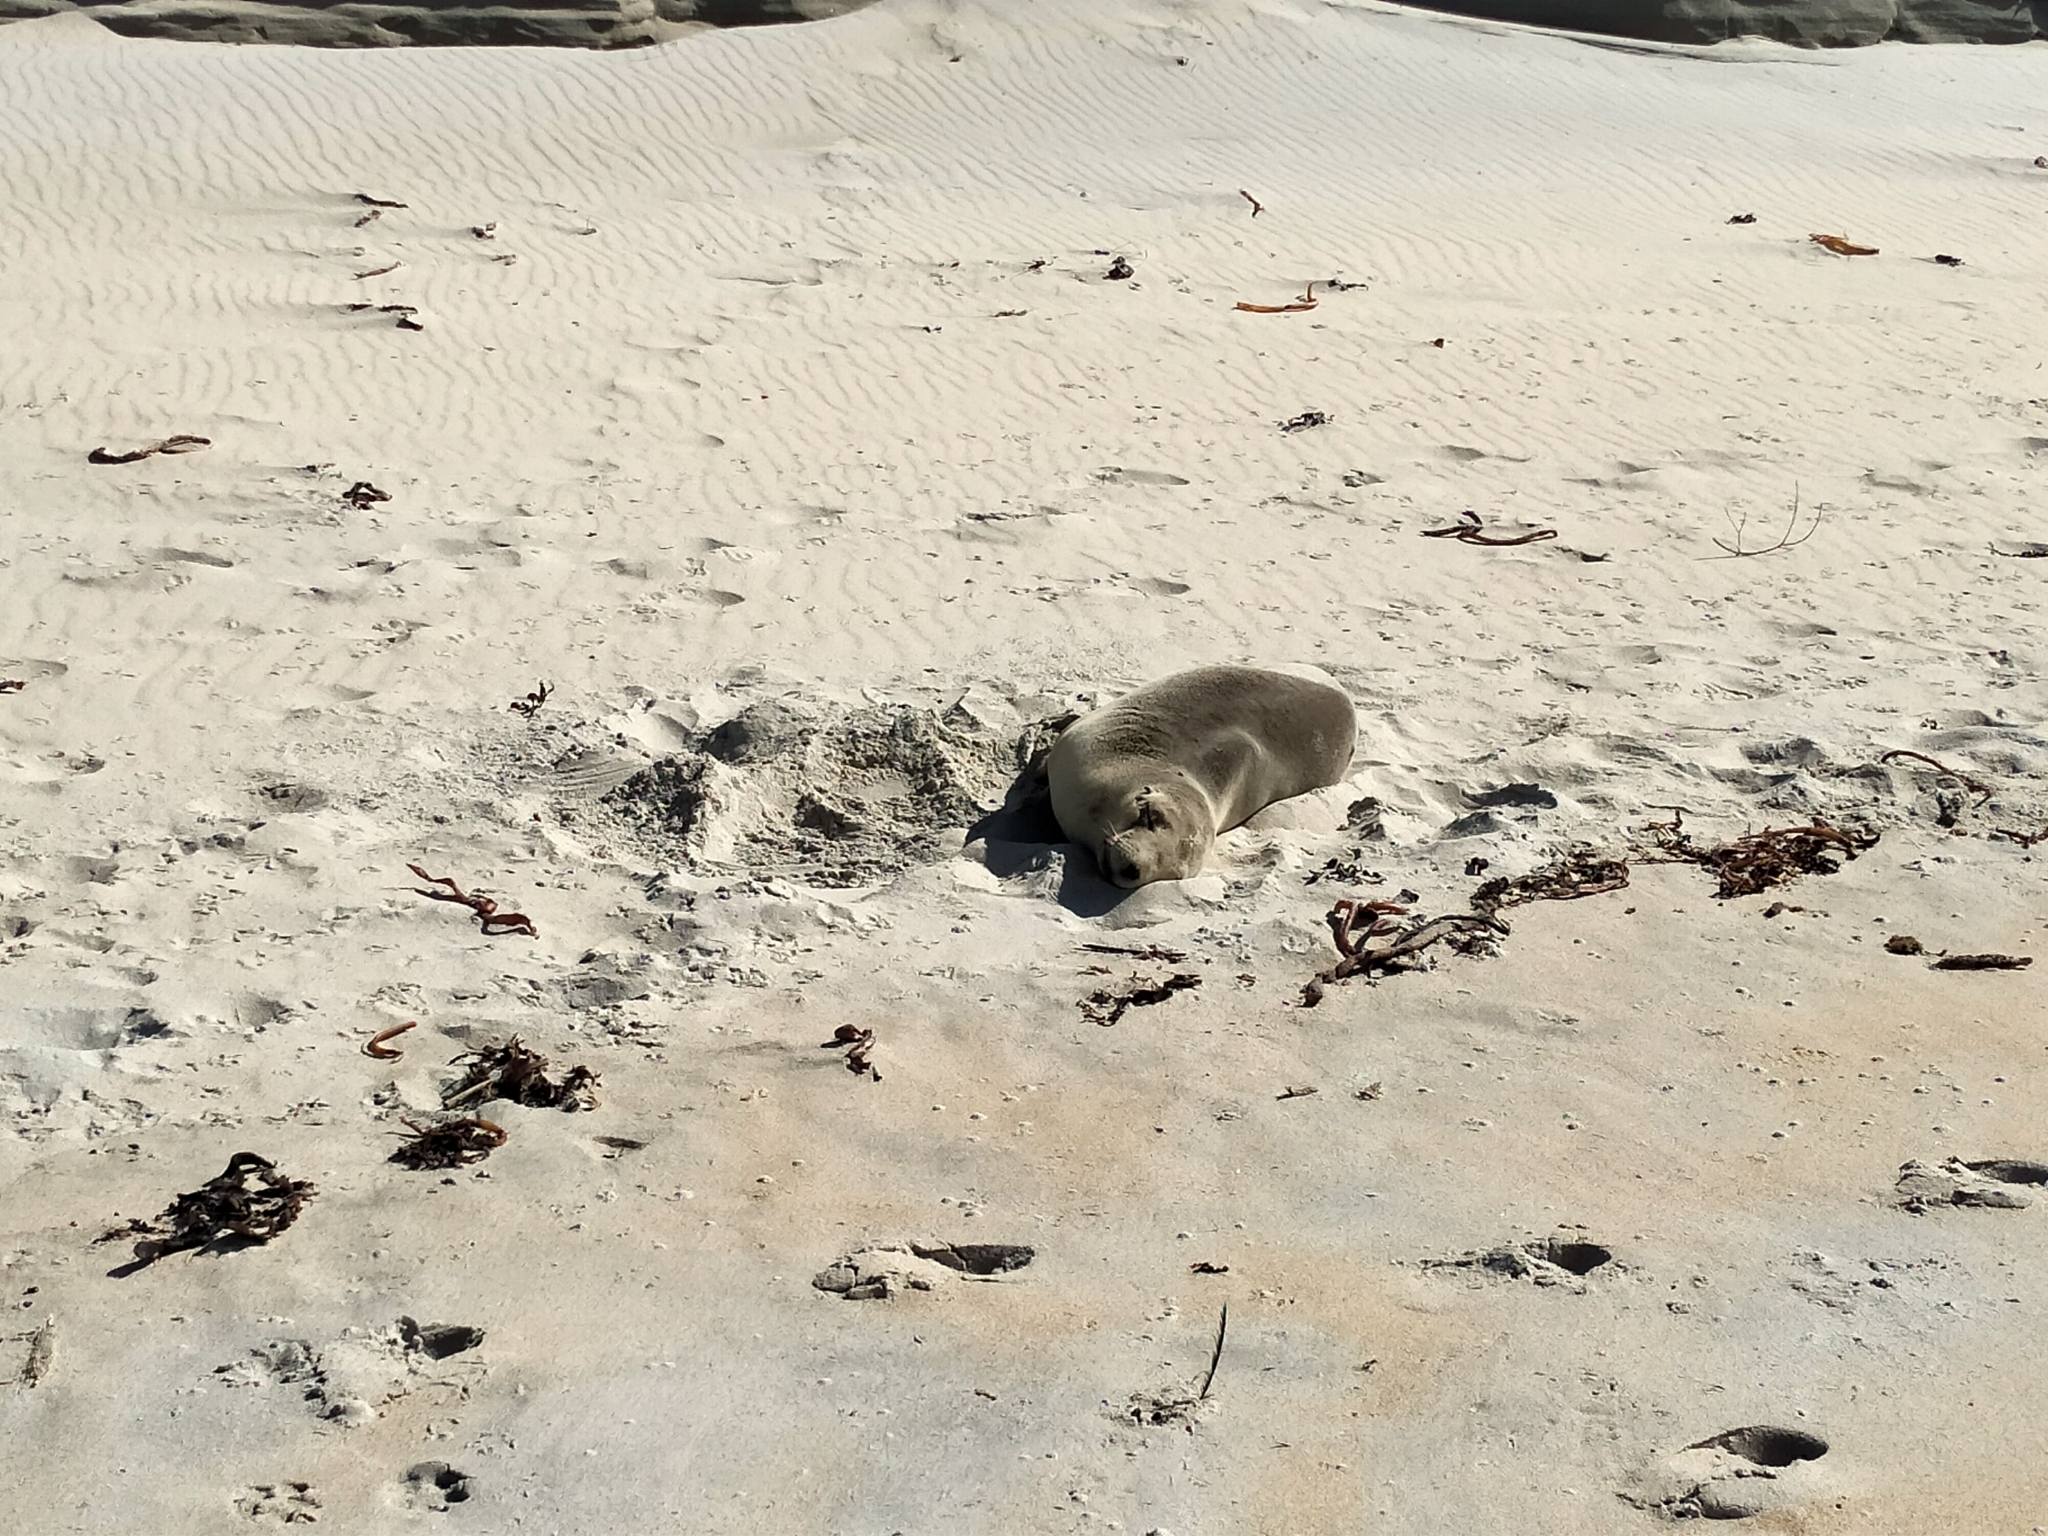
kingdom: Animalia
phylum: Chordata
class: Mammalia
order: Carnivora
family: Otariidae
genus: Phocarctos
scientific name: Phocarctos hookeri
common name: New zealand sea lion
